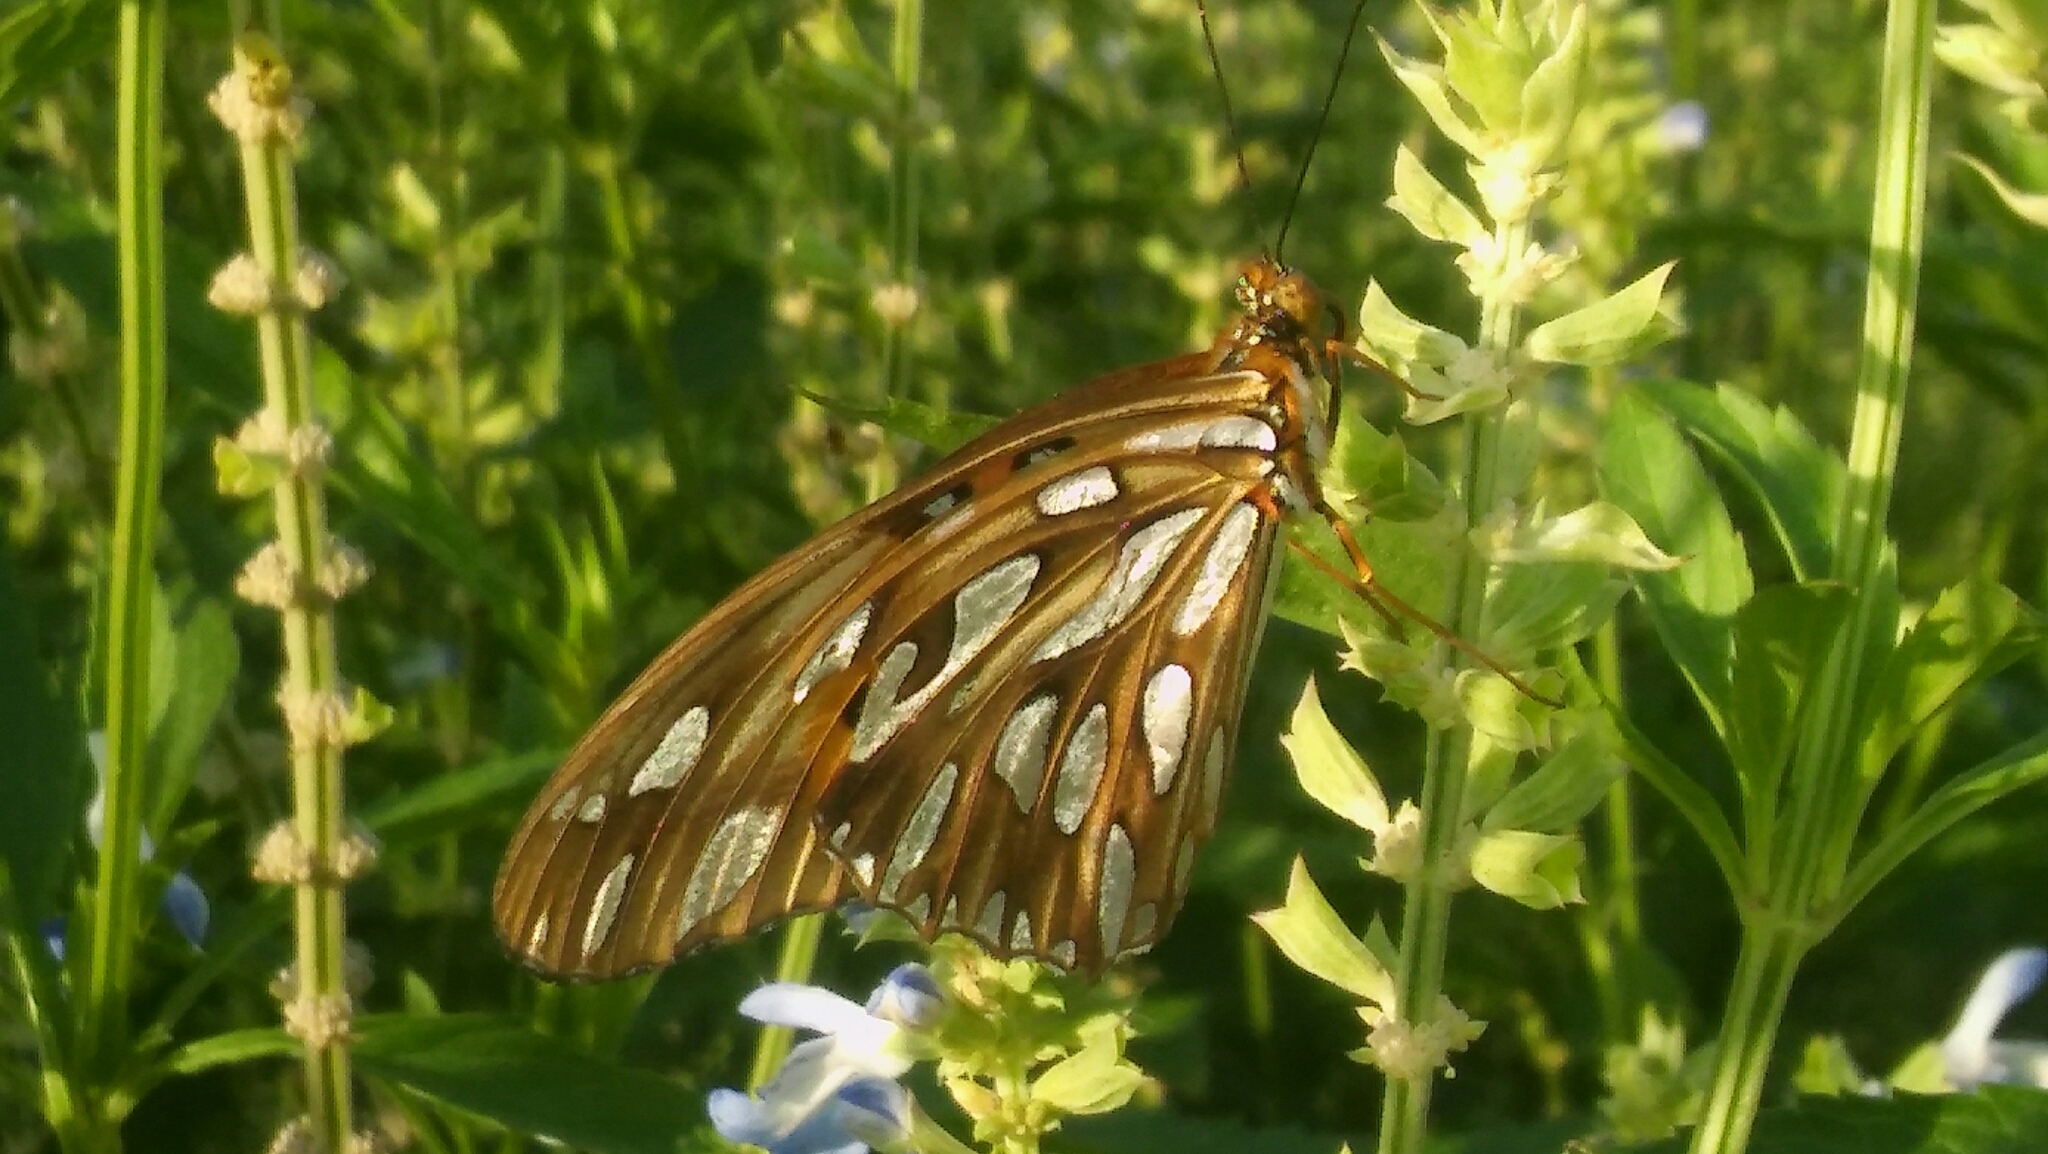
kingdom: Animalia
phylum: Arthropoda
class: Insecta
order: Lepidoptera
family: Nymphalidae
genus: Dione
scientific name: Dione vanillae
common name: Gulf fritillary
